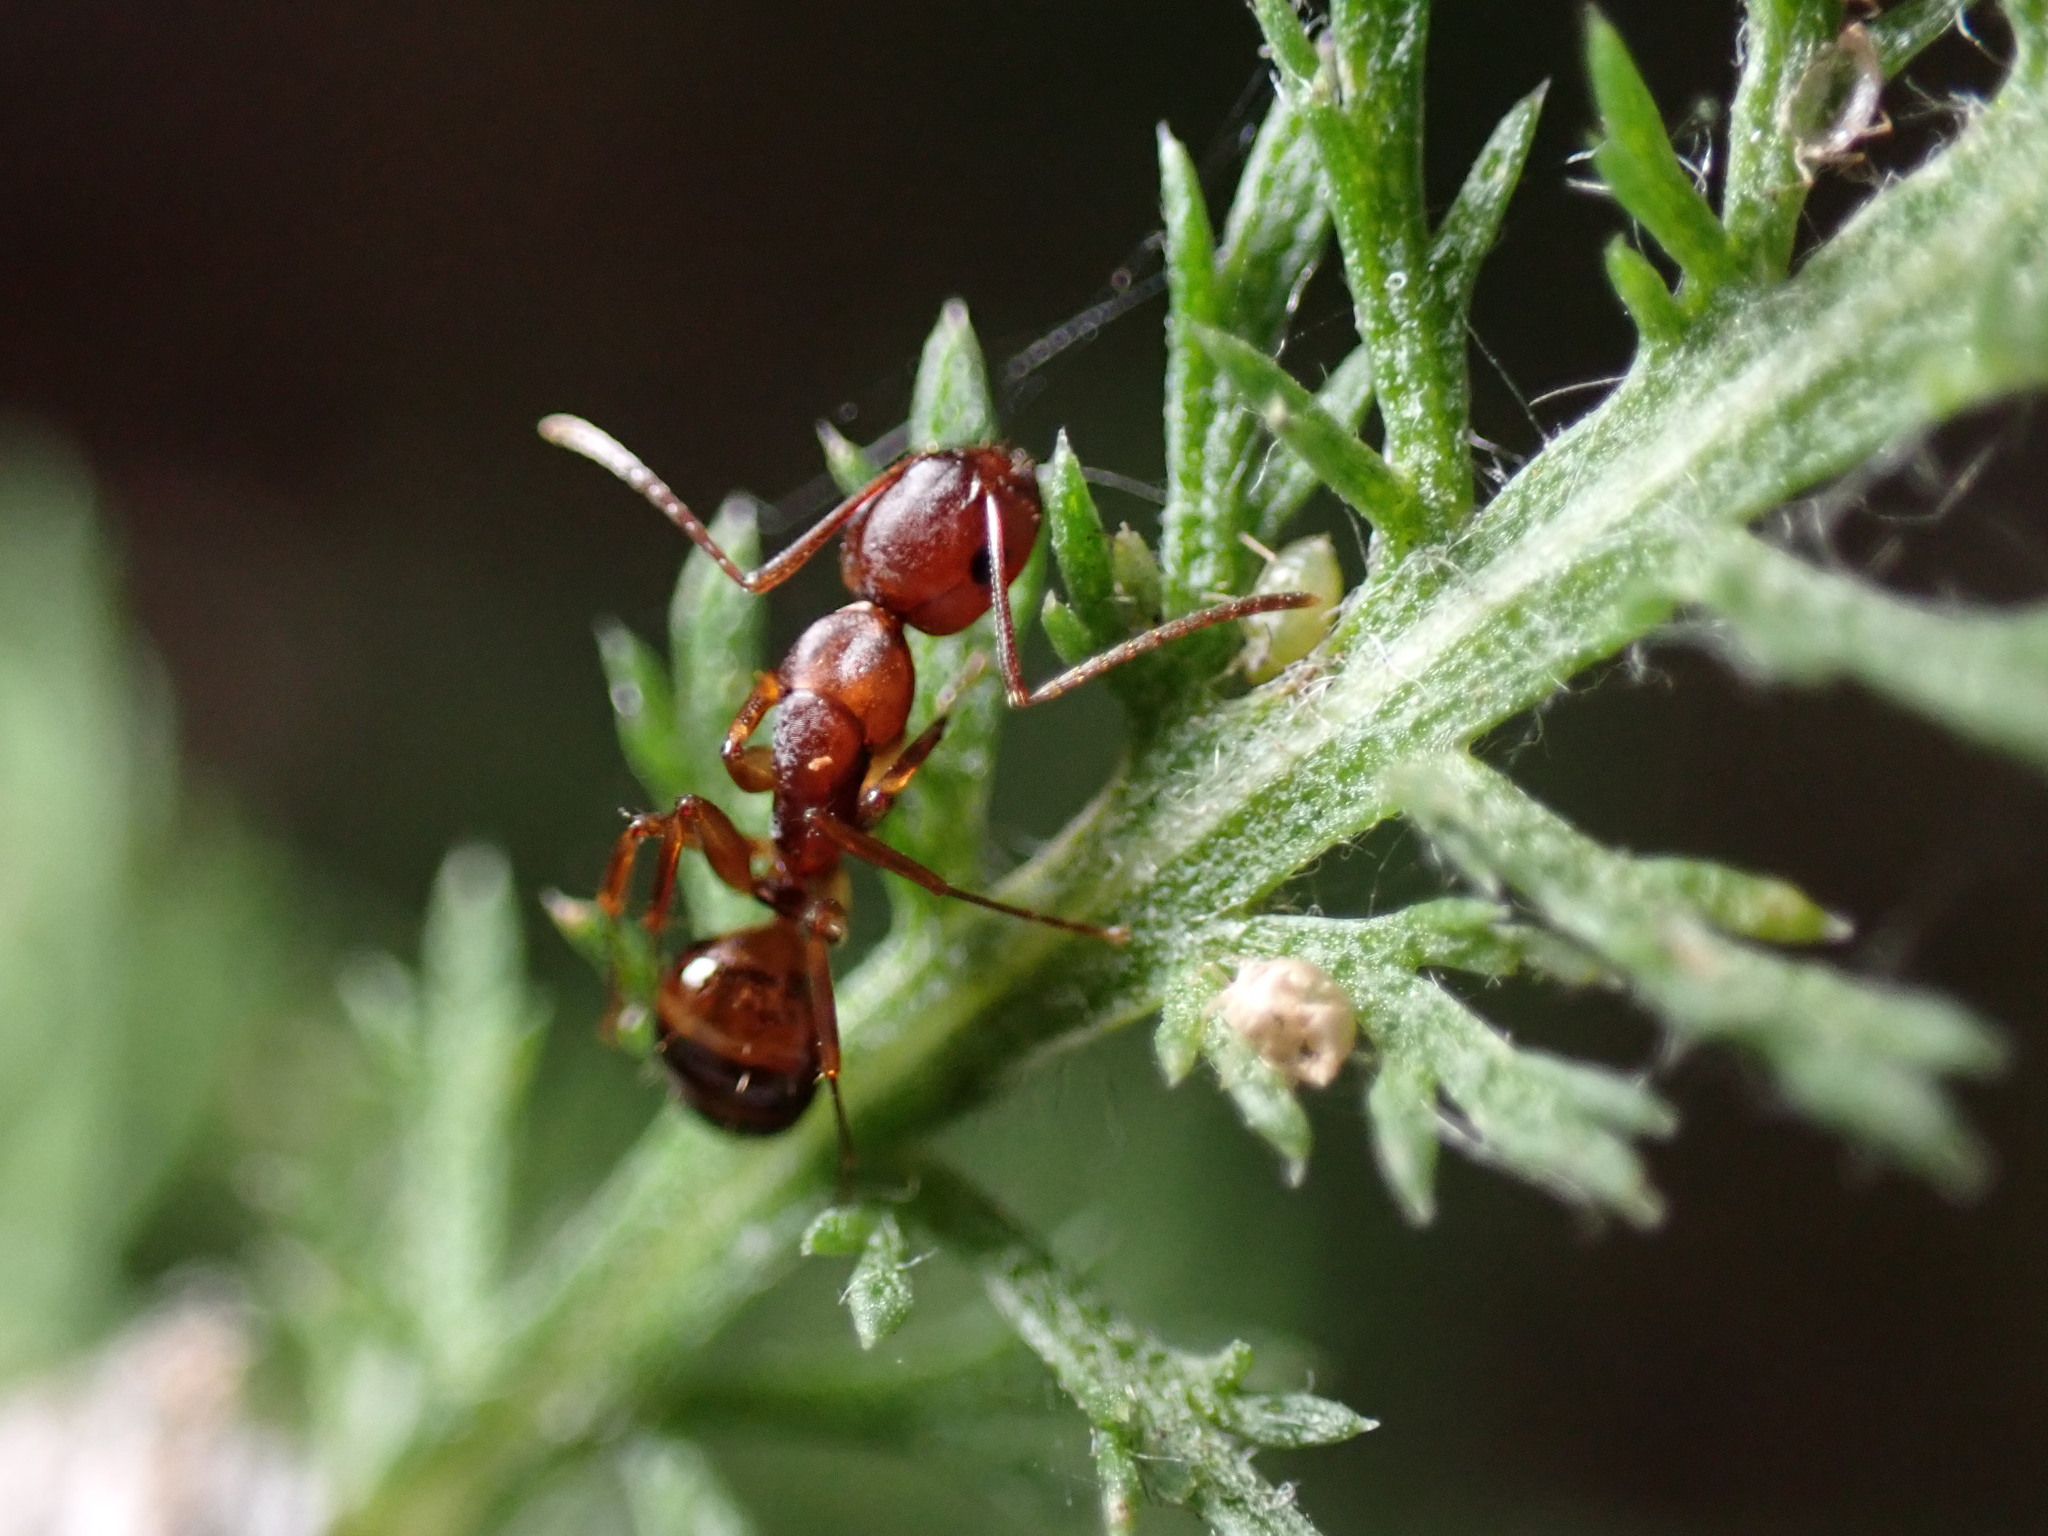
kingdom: Animalia
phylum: Arthropoda
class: Insecta
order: Hymenoptera
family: Formicidae
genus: Camponotus
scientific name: Camponotus subbarbatus
